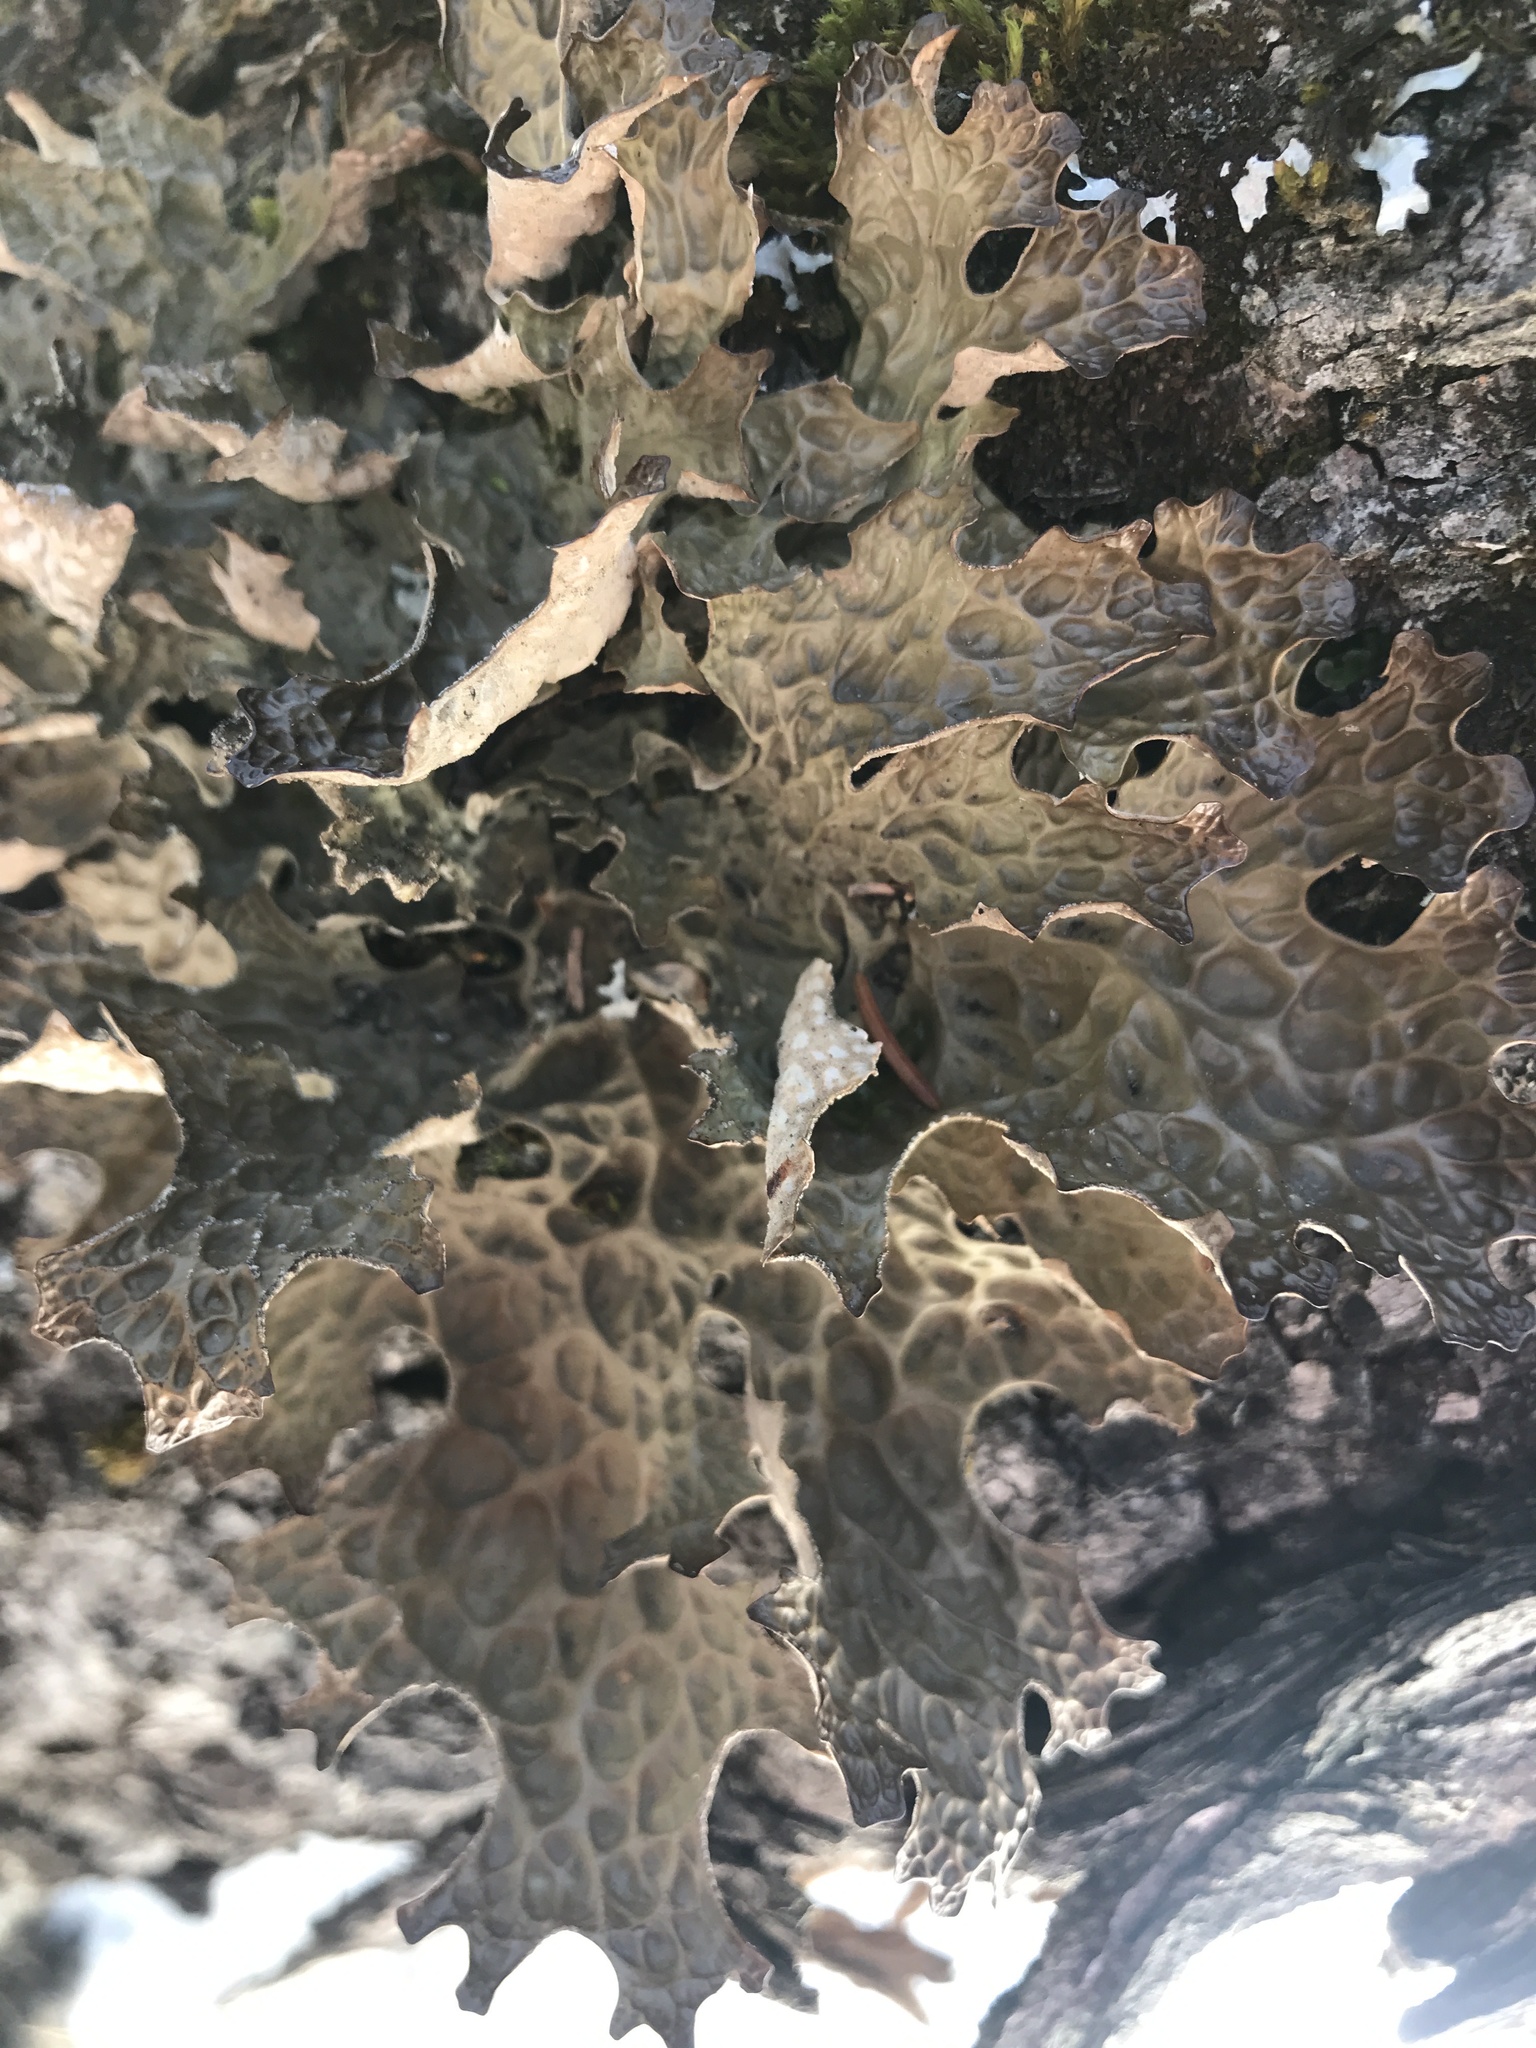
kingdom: Fungi
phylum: Ascomycota
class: Lecanoromycetes
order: Peltigerales
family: Lobariaceae
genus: Lobaria
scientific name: Lobaria pulmonaria
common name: Lungwort
